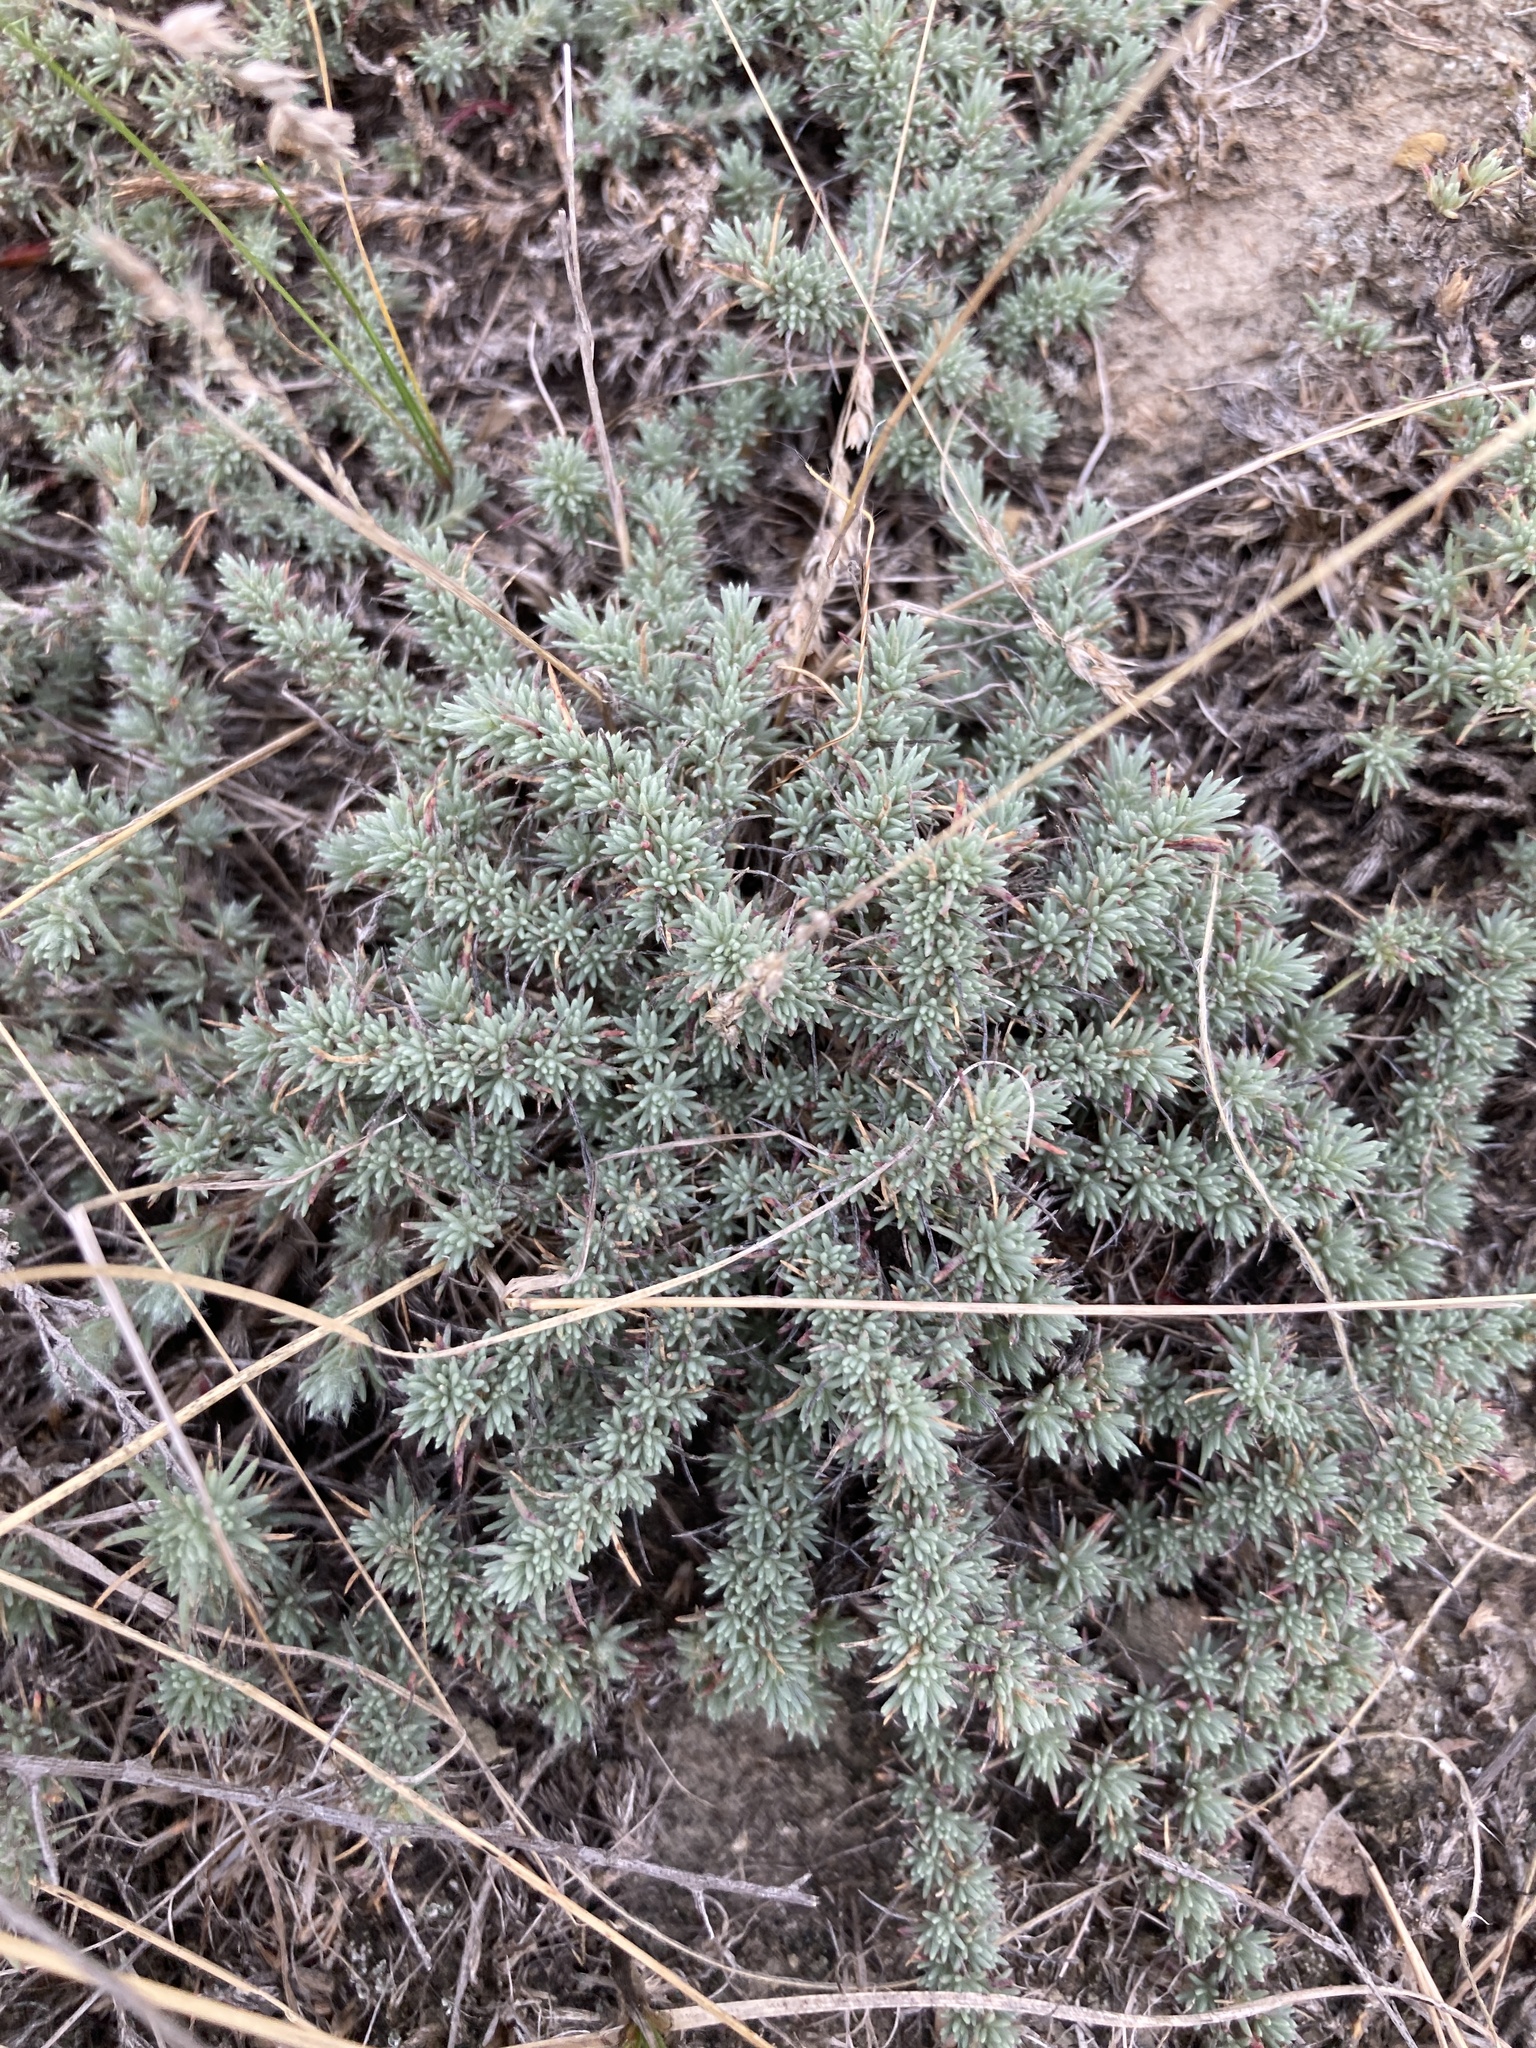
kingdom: Plantae
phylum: Tracheophyta
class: Magnoliopsida
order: Caryophyllales
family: Amaranthaceae
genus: Bassia
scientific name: Bassia prostrata
